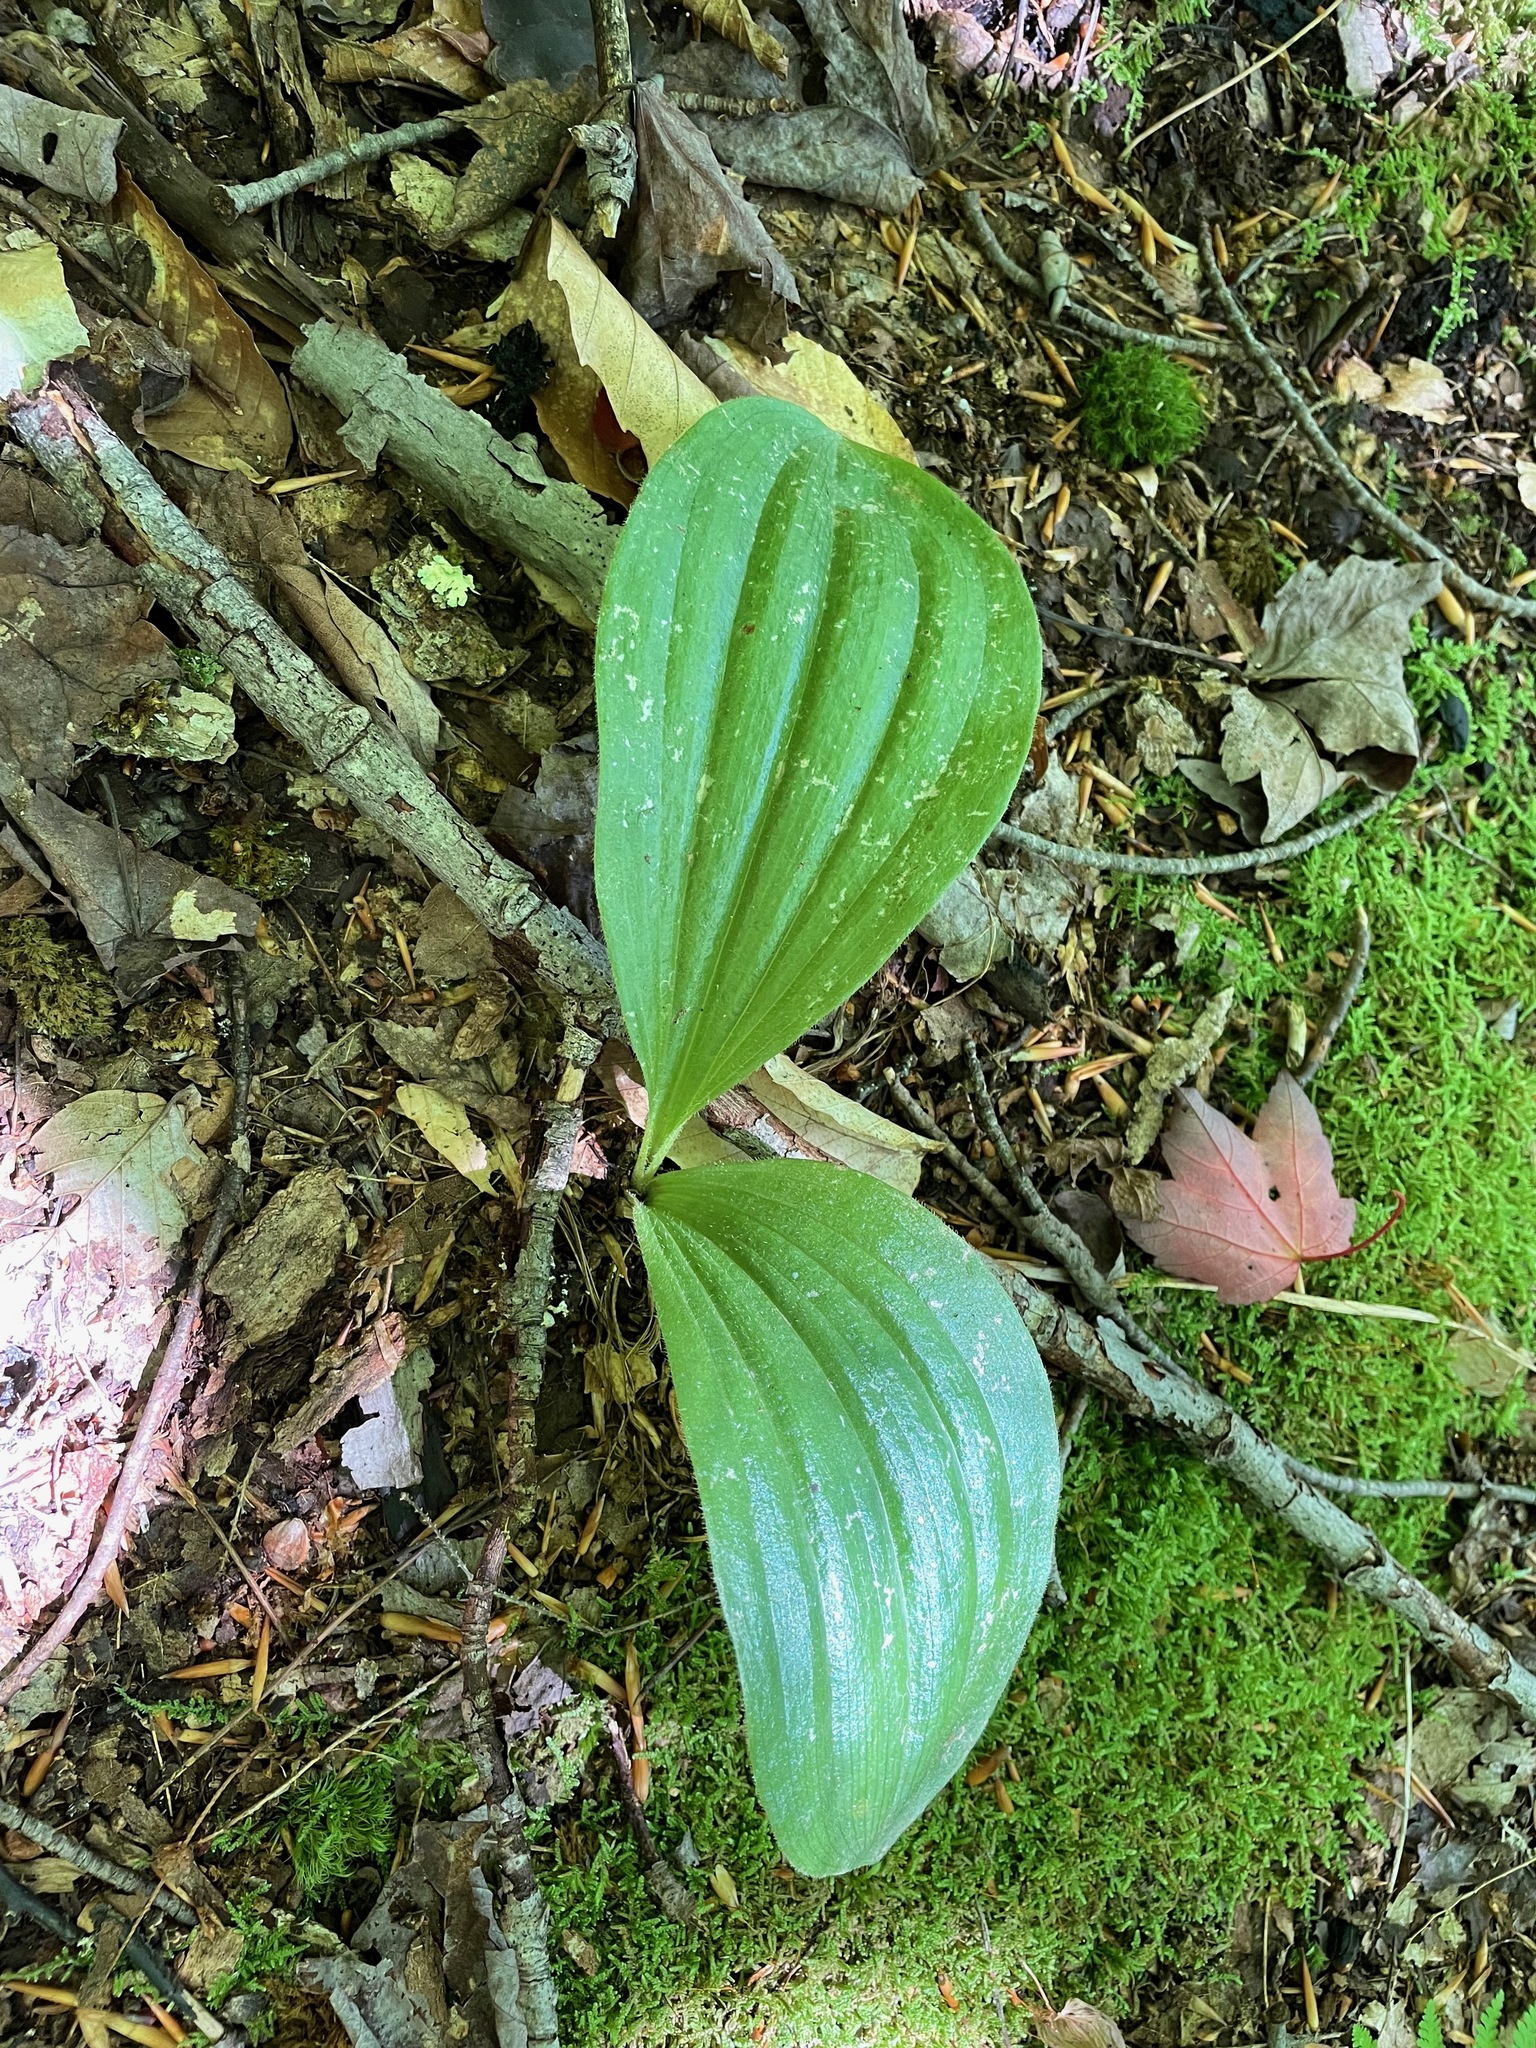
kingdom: Plantae
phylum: Tracheophyta
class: Liliopsida
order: Asparagales
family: Orchidaceae
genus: Cypripedium
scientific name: Cypripedium acaule
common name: Pink lady's-slipper
